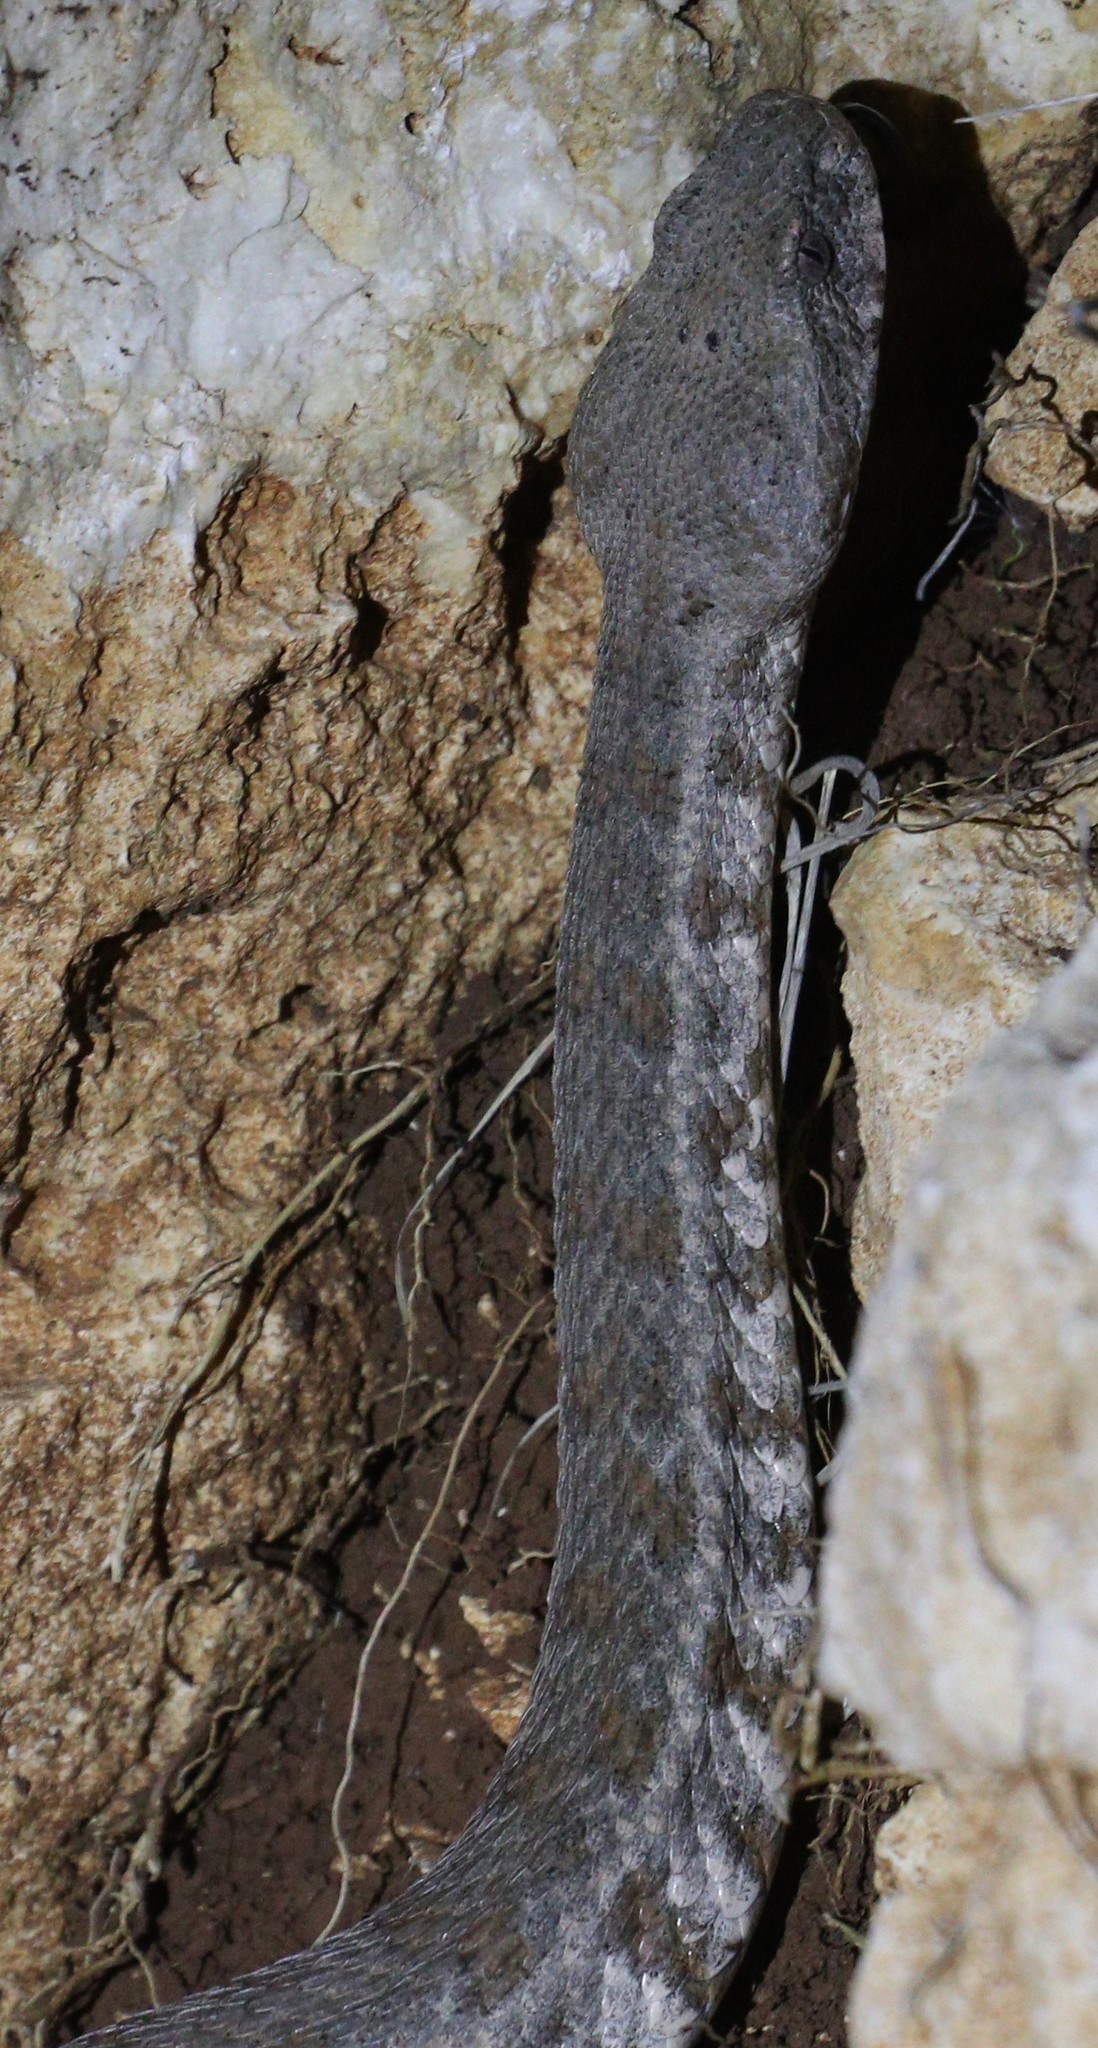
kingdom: Animalia
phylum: Chordata
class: Squamata
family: Viperidae
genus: Macrovipera
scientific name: Macrovipera lebetinus
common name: Levantine viper
